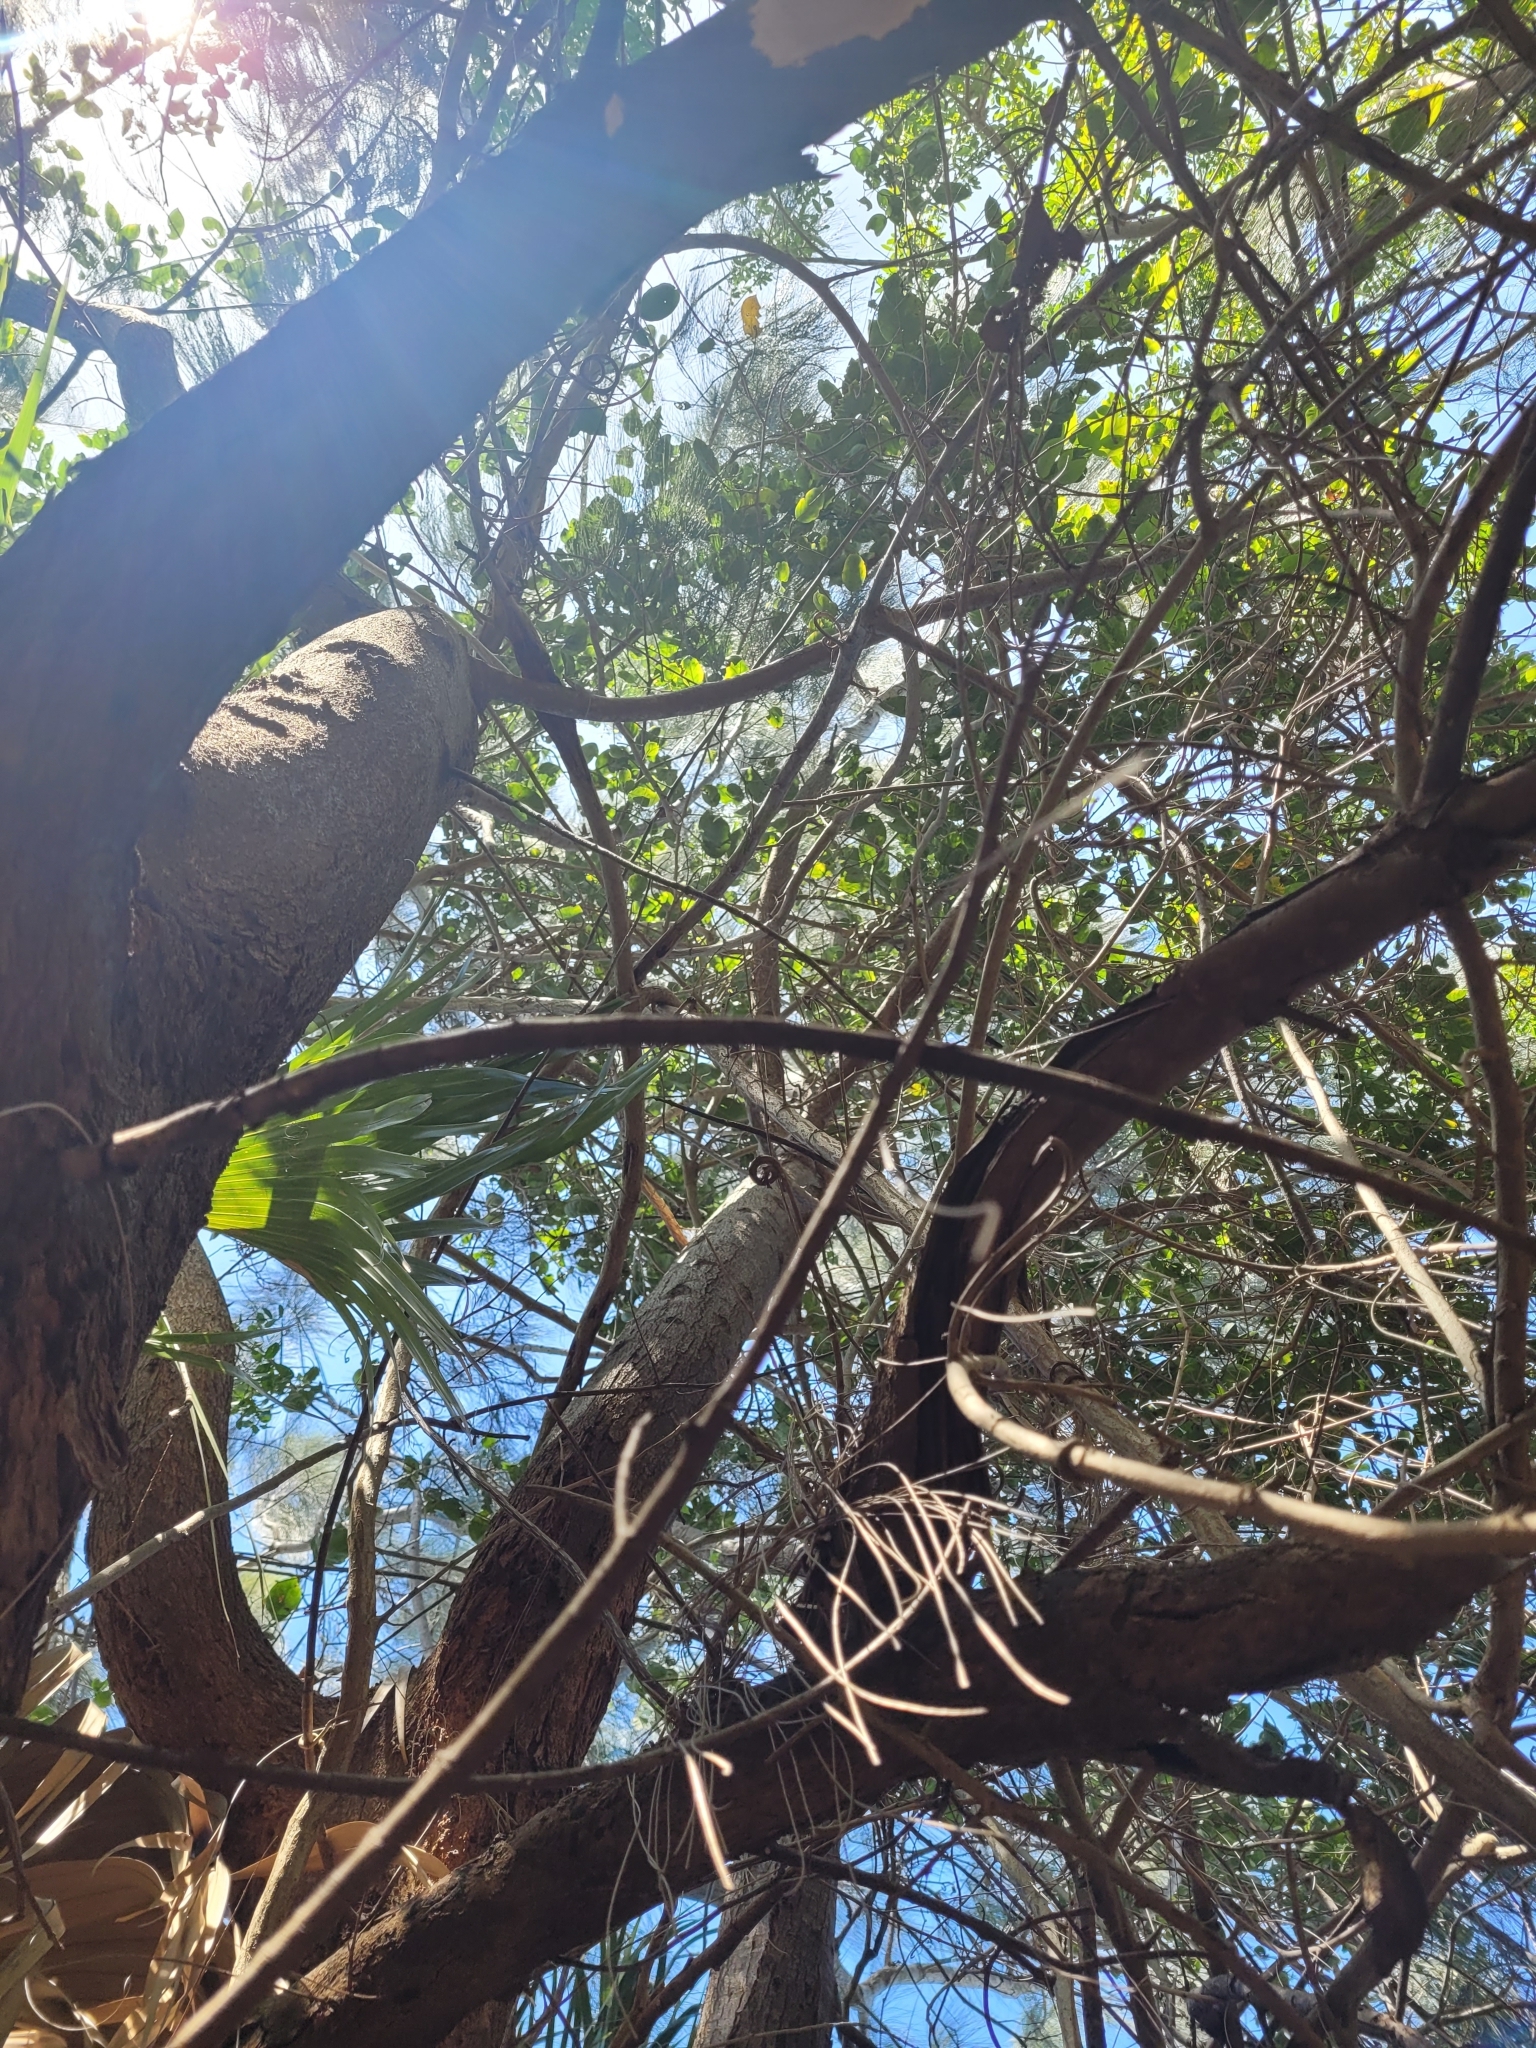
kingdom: Plantae
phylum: Tracheophyta
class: Magnoliopsida
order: Malpighiales
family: Rhizophoraceae
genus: Rhizophora
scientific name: Rhizophora mangle
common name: Red mangrove
